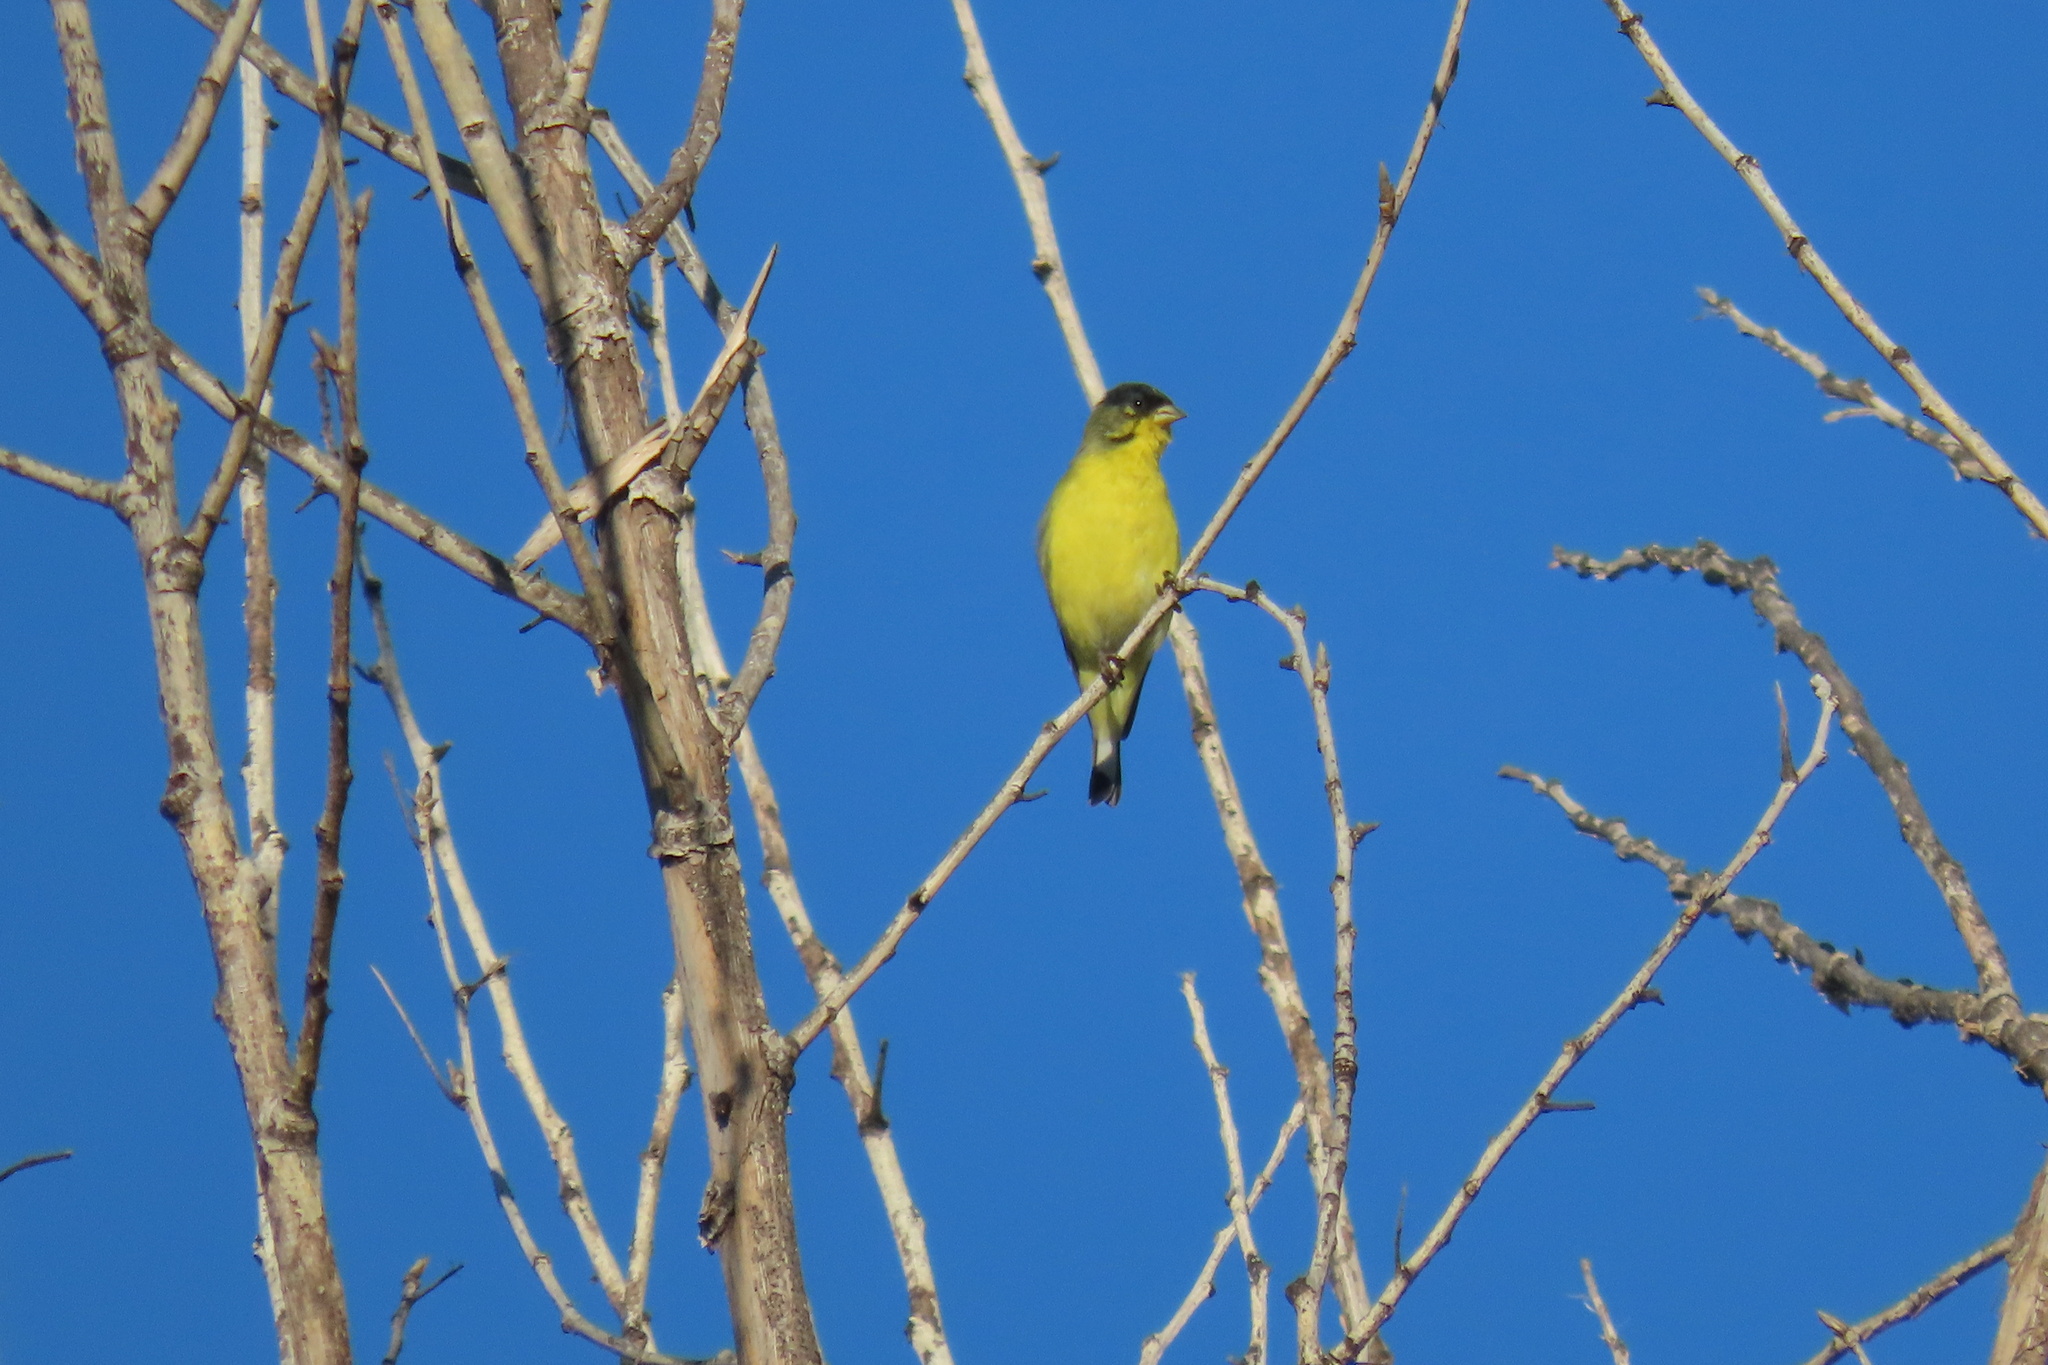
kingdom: Animalia
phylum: Chordata
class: Aves
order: Passeriformes
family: Fringillidae
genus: Spinus
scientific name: Spinus psaltria
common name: Lesser goldfinch
